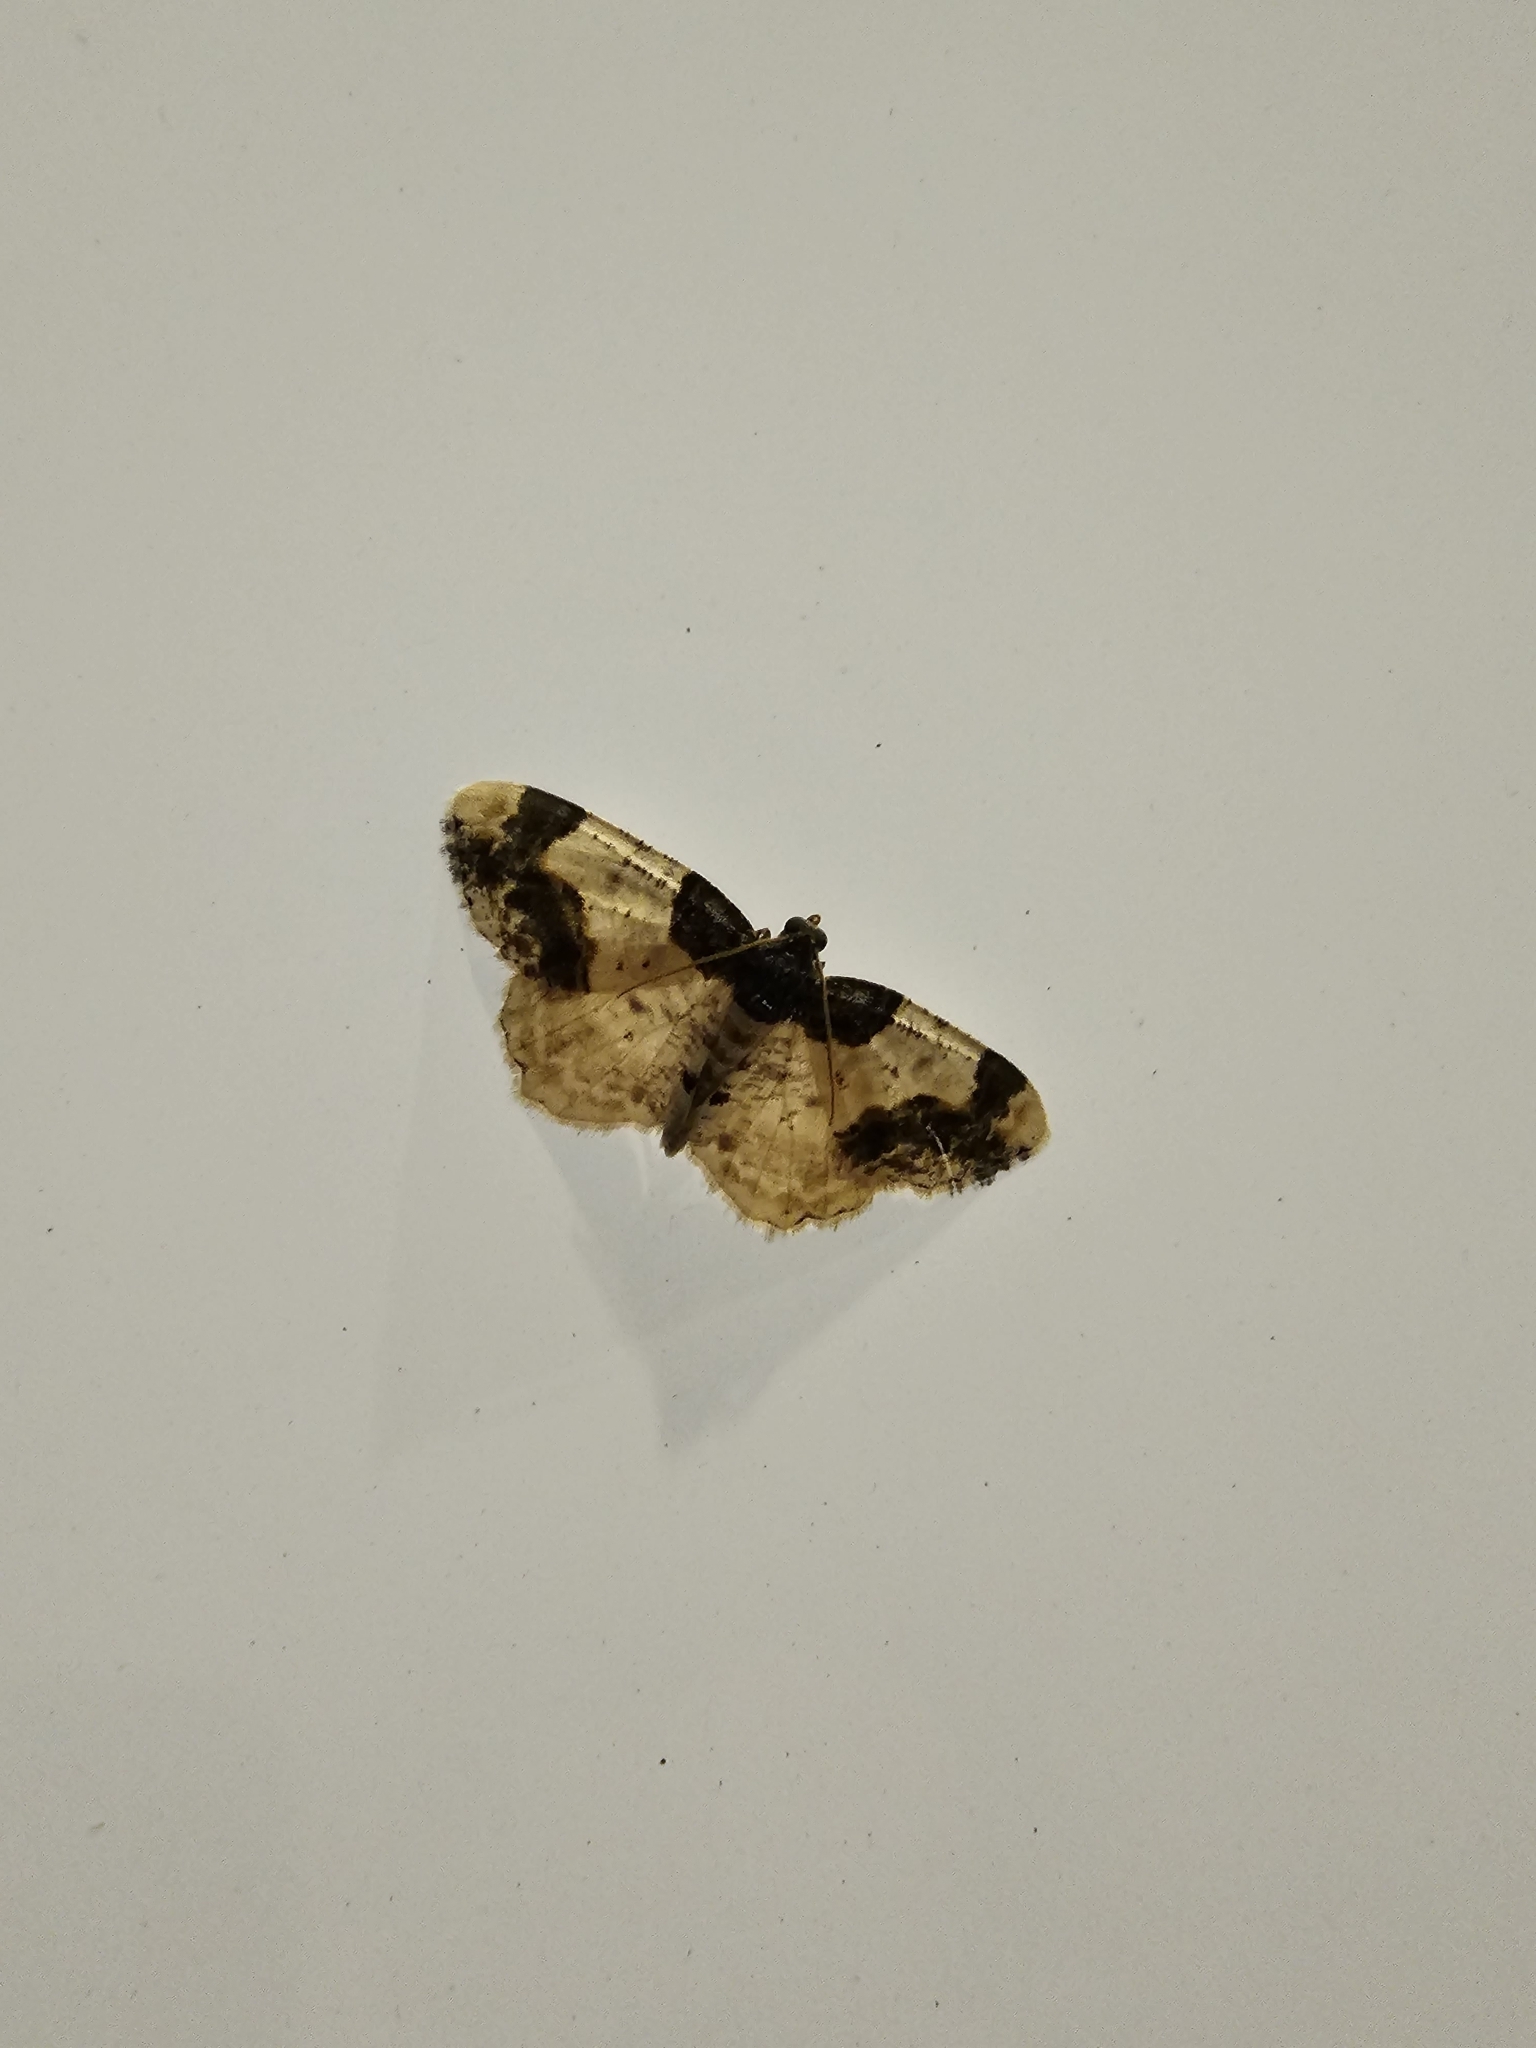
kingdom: Animalia
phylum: Arthropoda
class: Insecta
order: Lepidoptera
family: Geometridae
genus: Ligdia
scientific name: Ligdia adustata
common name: Scorched carpet
